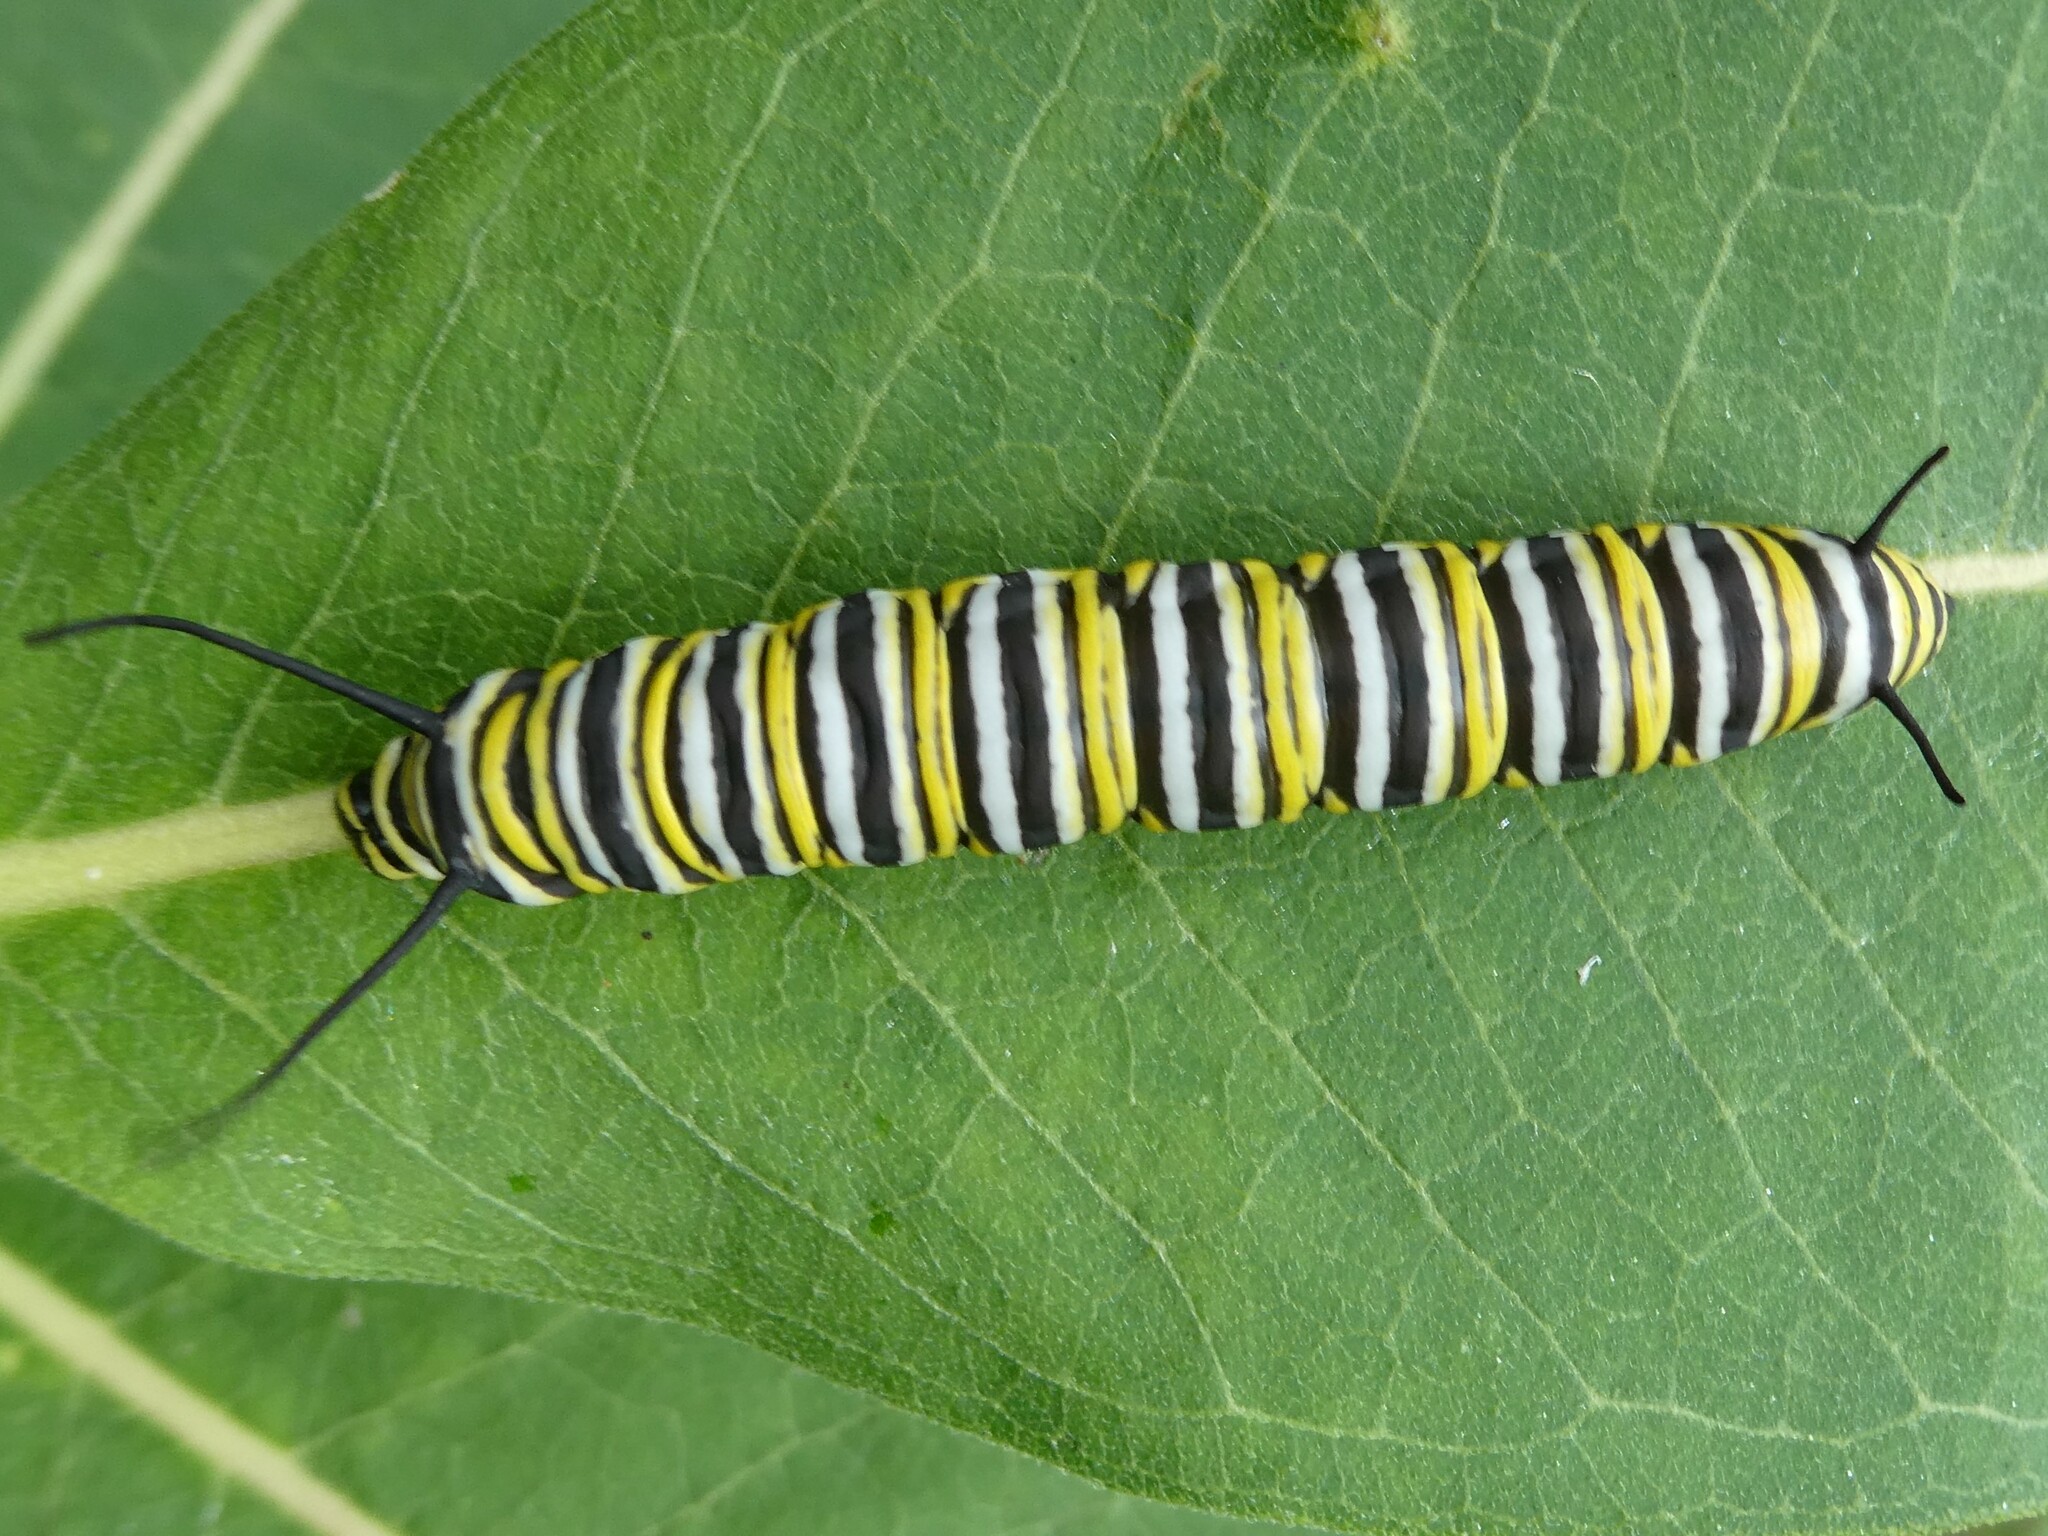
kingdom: Animalia
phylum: Arthropoda
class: Insecta
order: Lepidoptera
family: Nymphalidae
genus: Danaus
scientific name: Danaus plexippus
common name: Monarch
